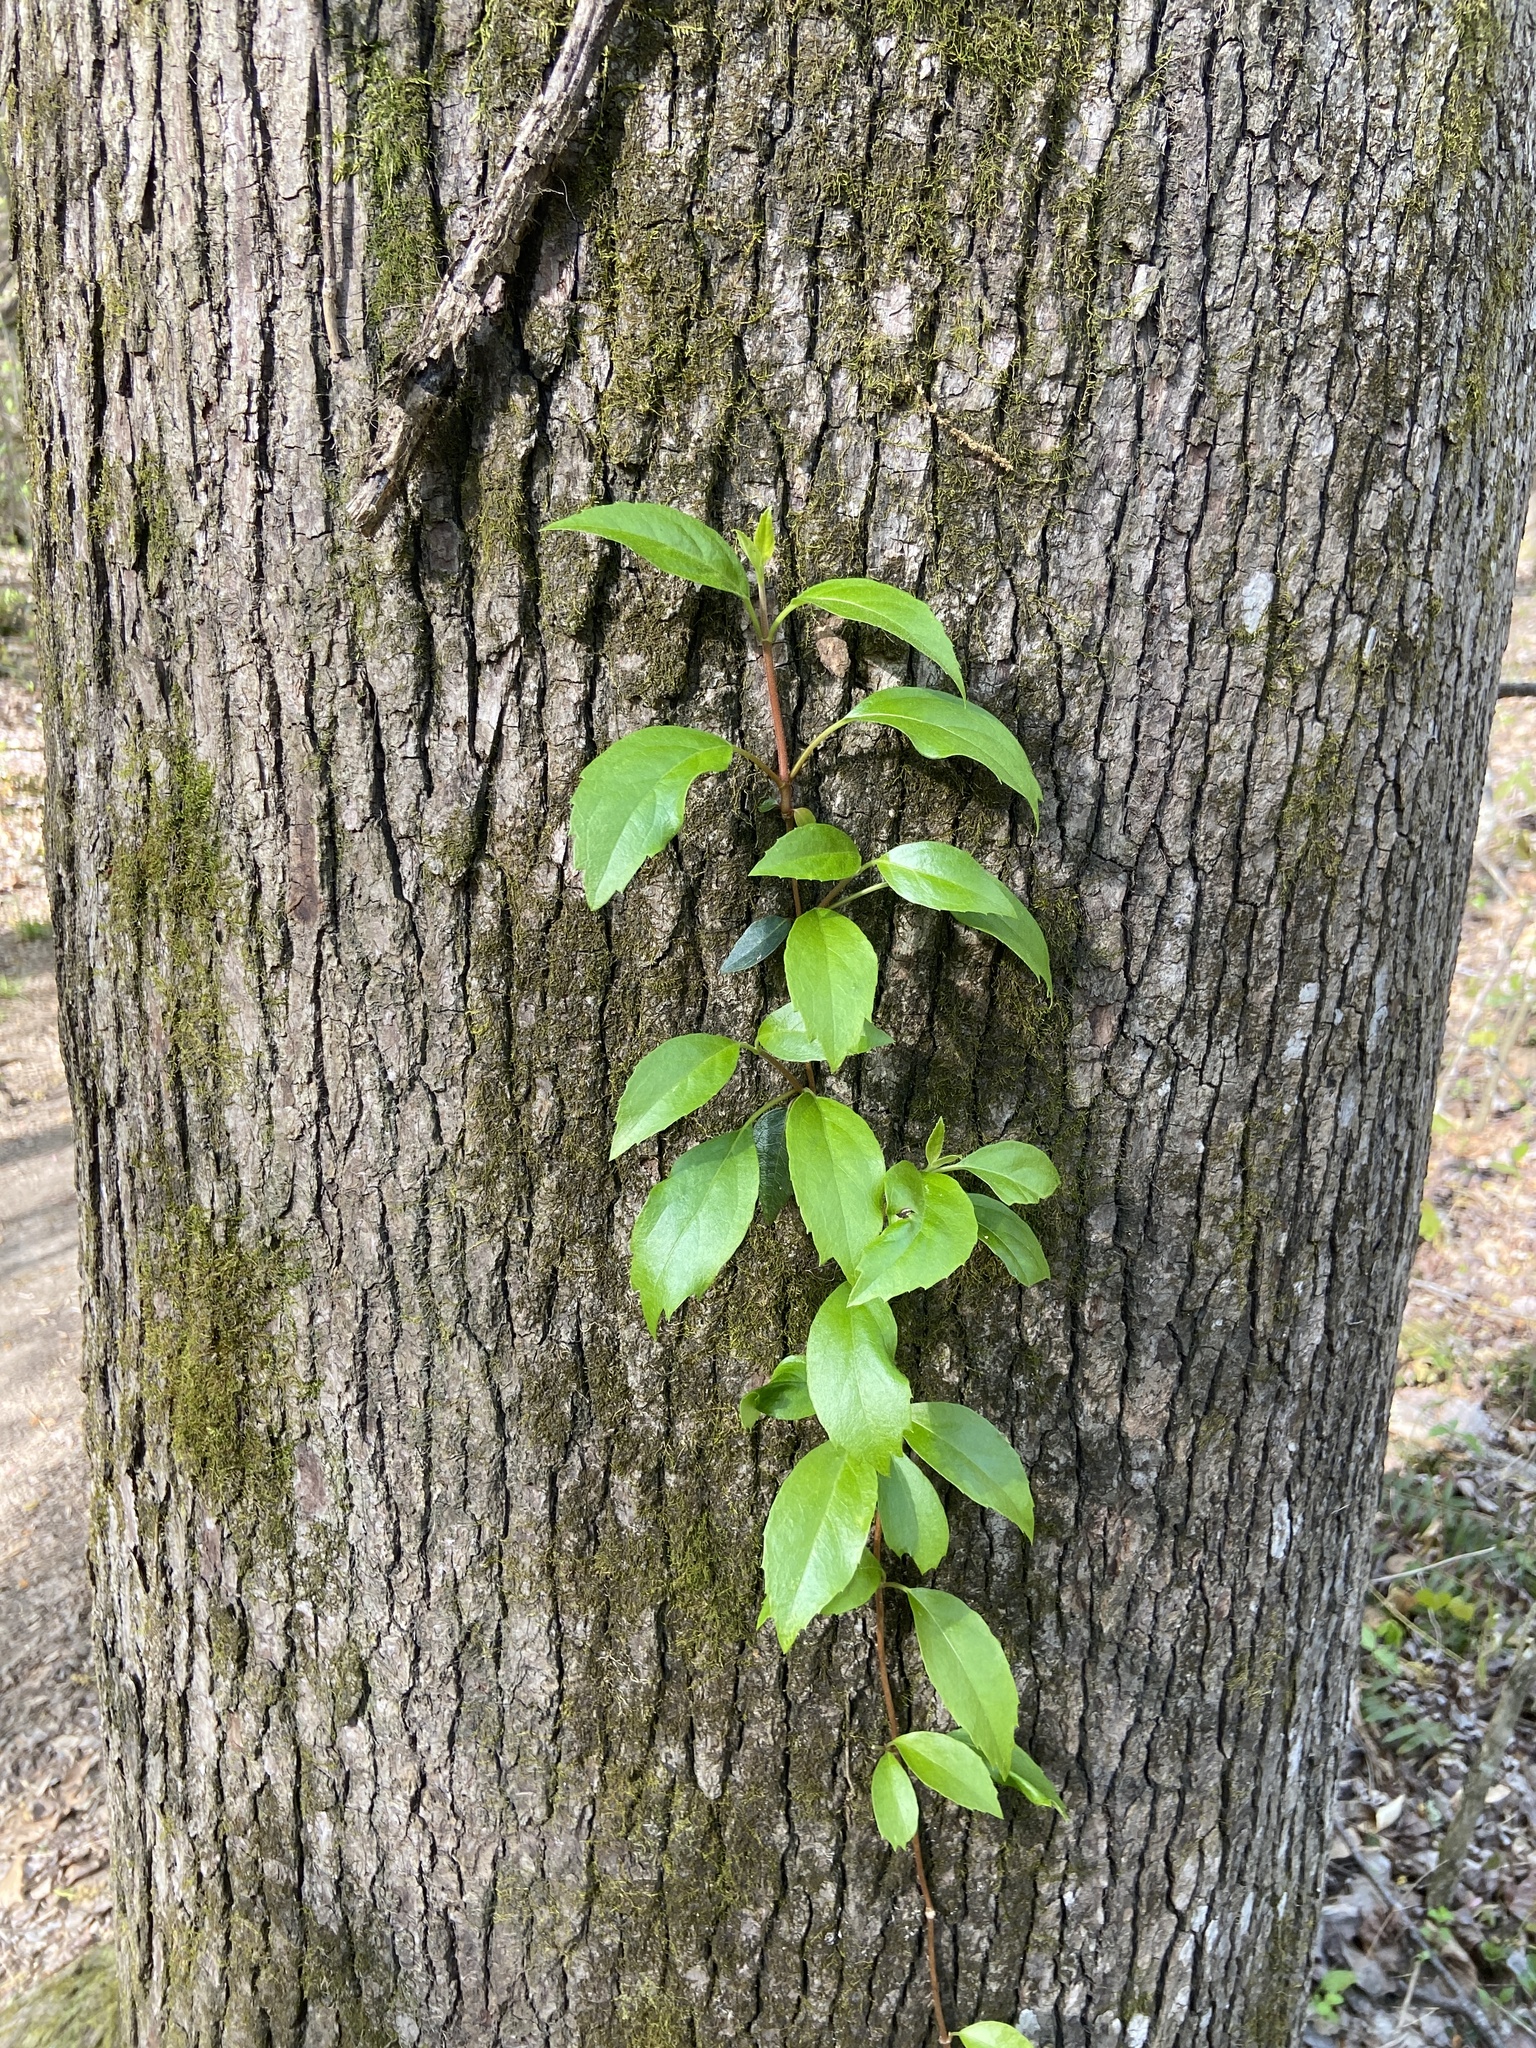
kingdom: Plantae
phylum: Tracheophyta
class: Magnoliopsida
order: Cornales
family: Hydrangeaceae
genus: Hydrangea
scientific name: Hydrangea barbara
